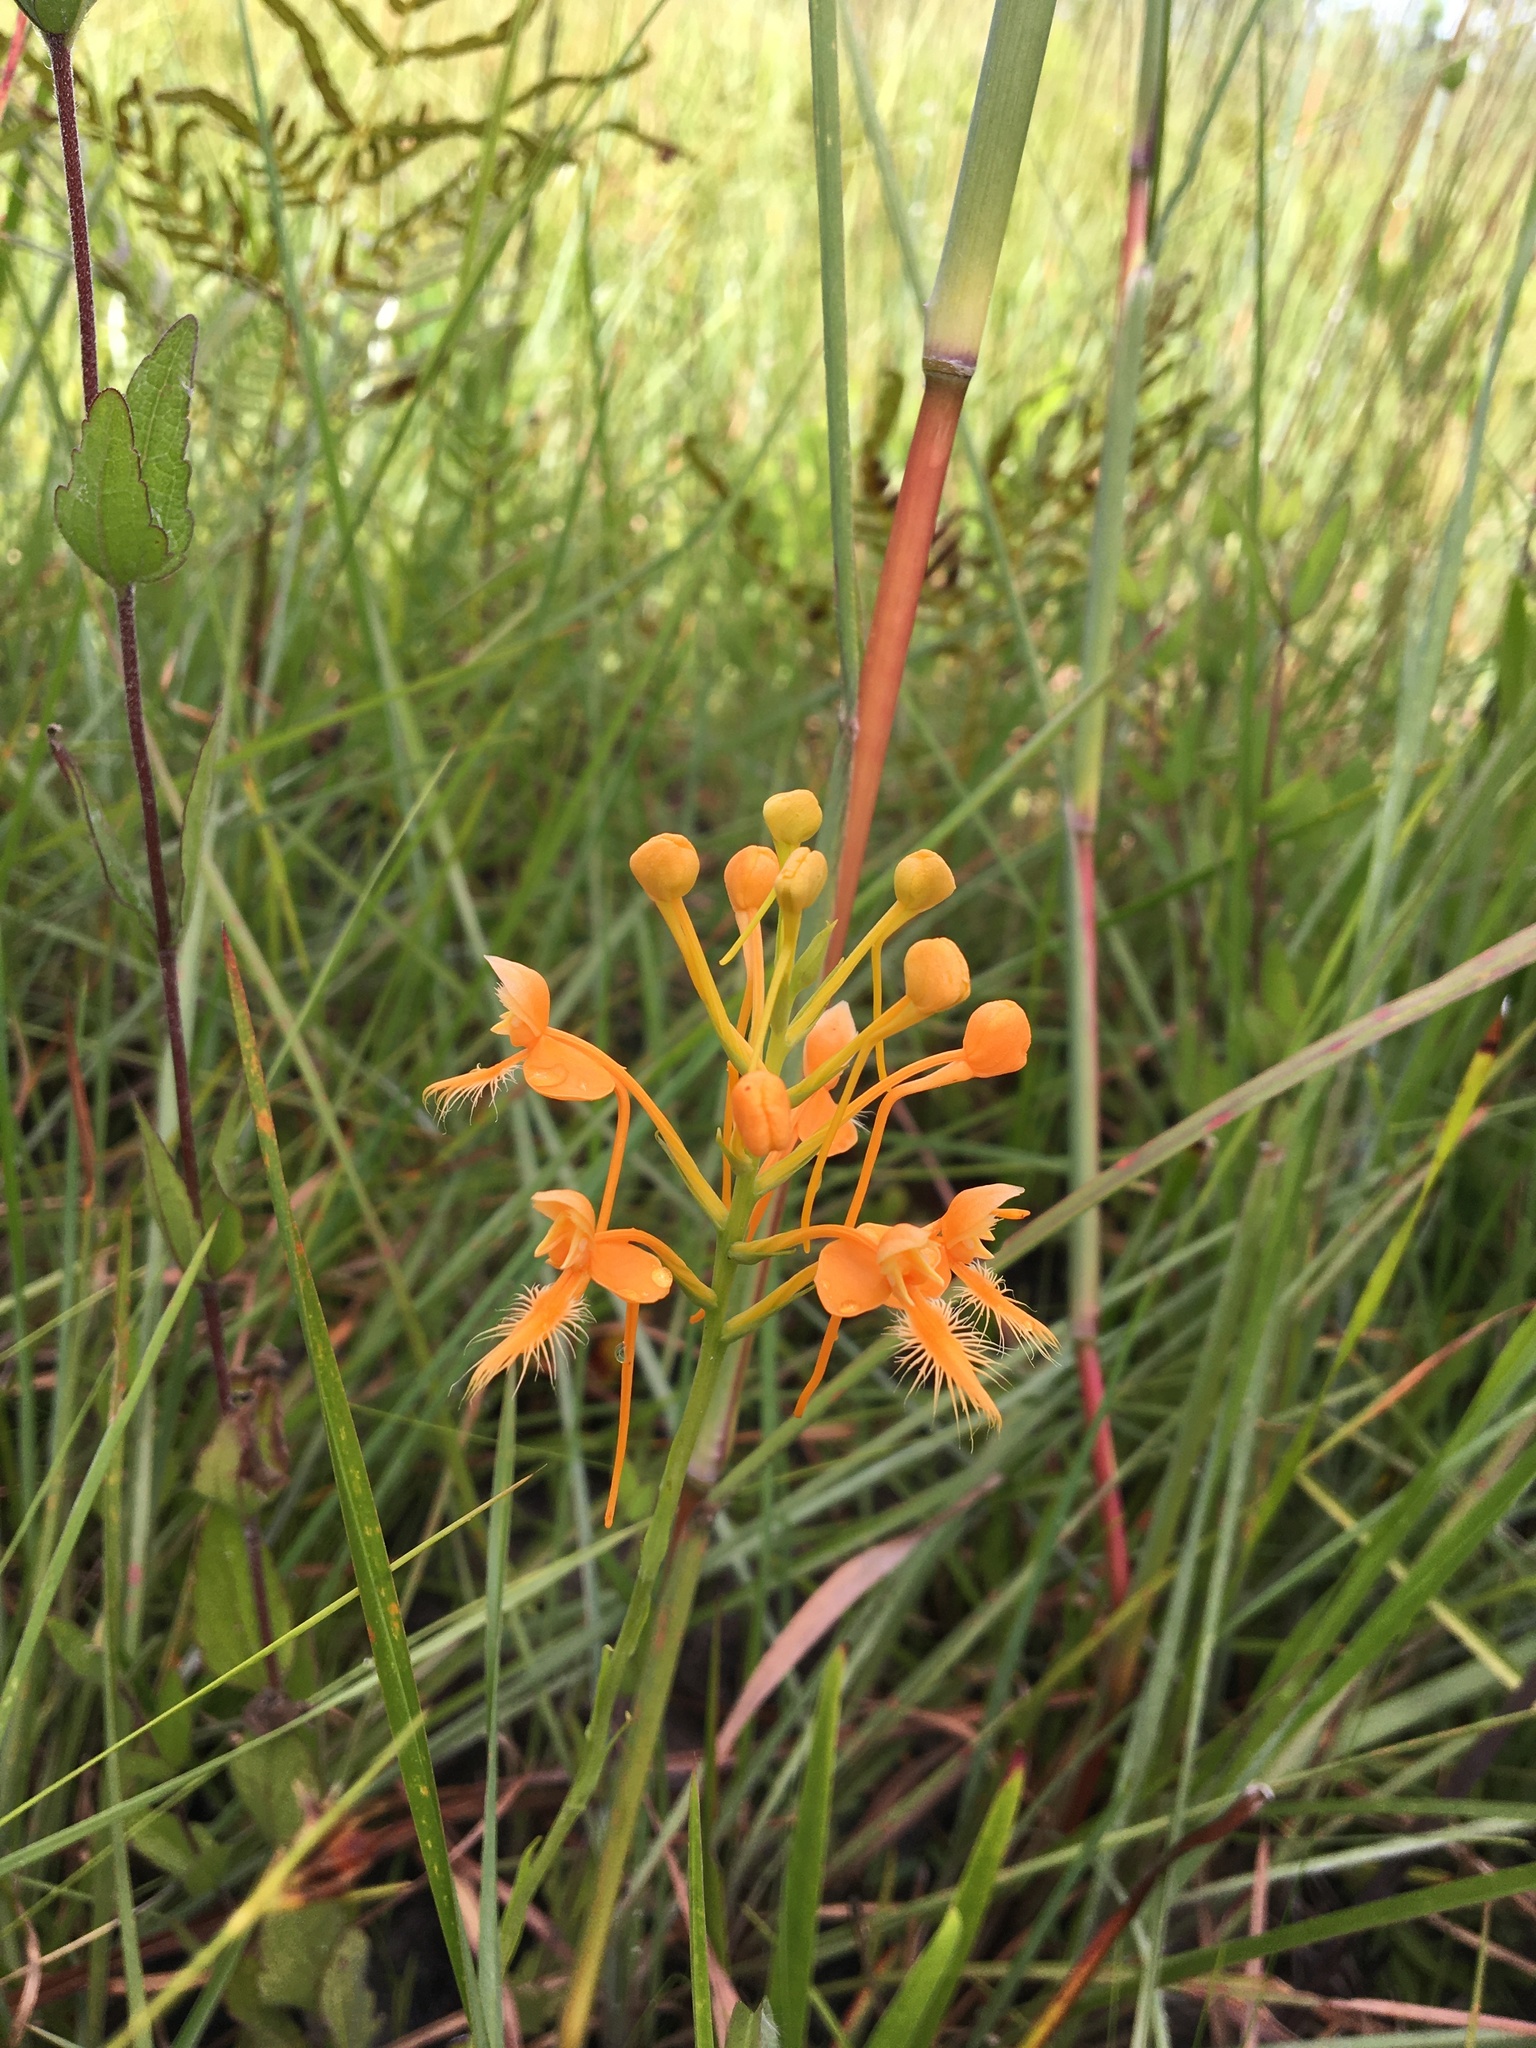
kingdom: Plantae
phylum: Tracheophyta
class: Liliopsida
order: Asparagales
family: Orchidaceae
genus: Platanthera
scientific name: Platanthera ciliaris
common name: Yellow fringed orchid
